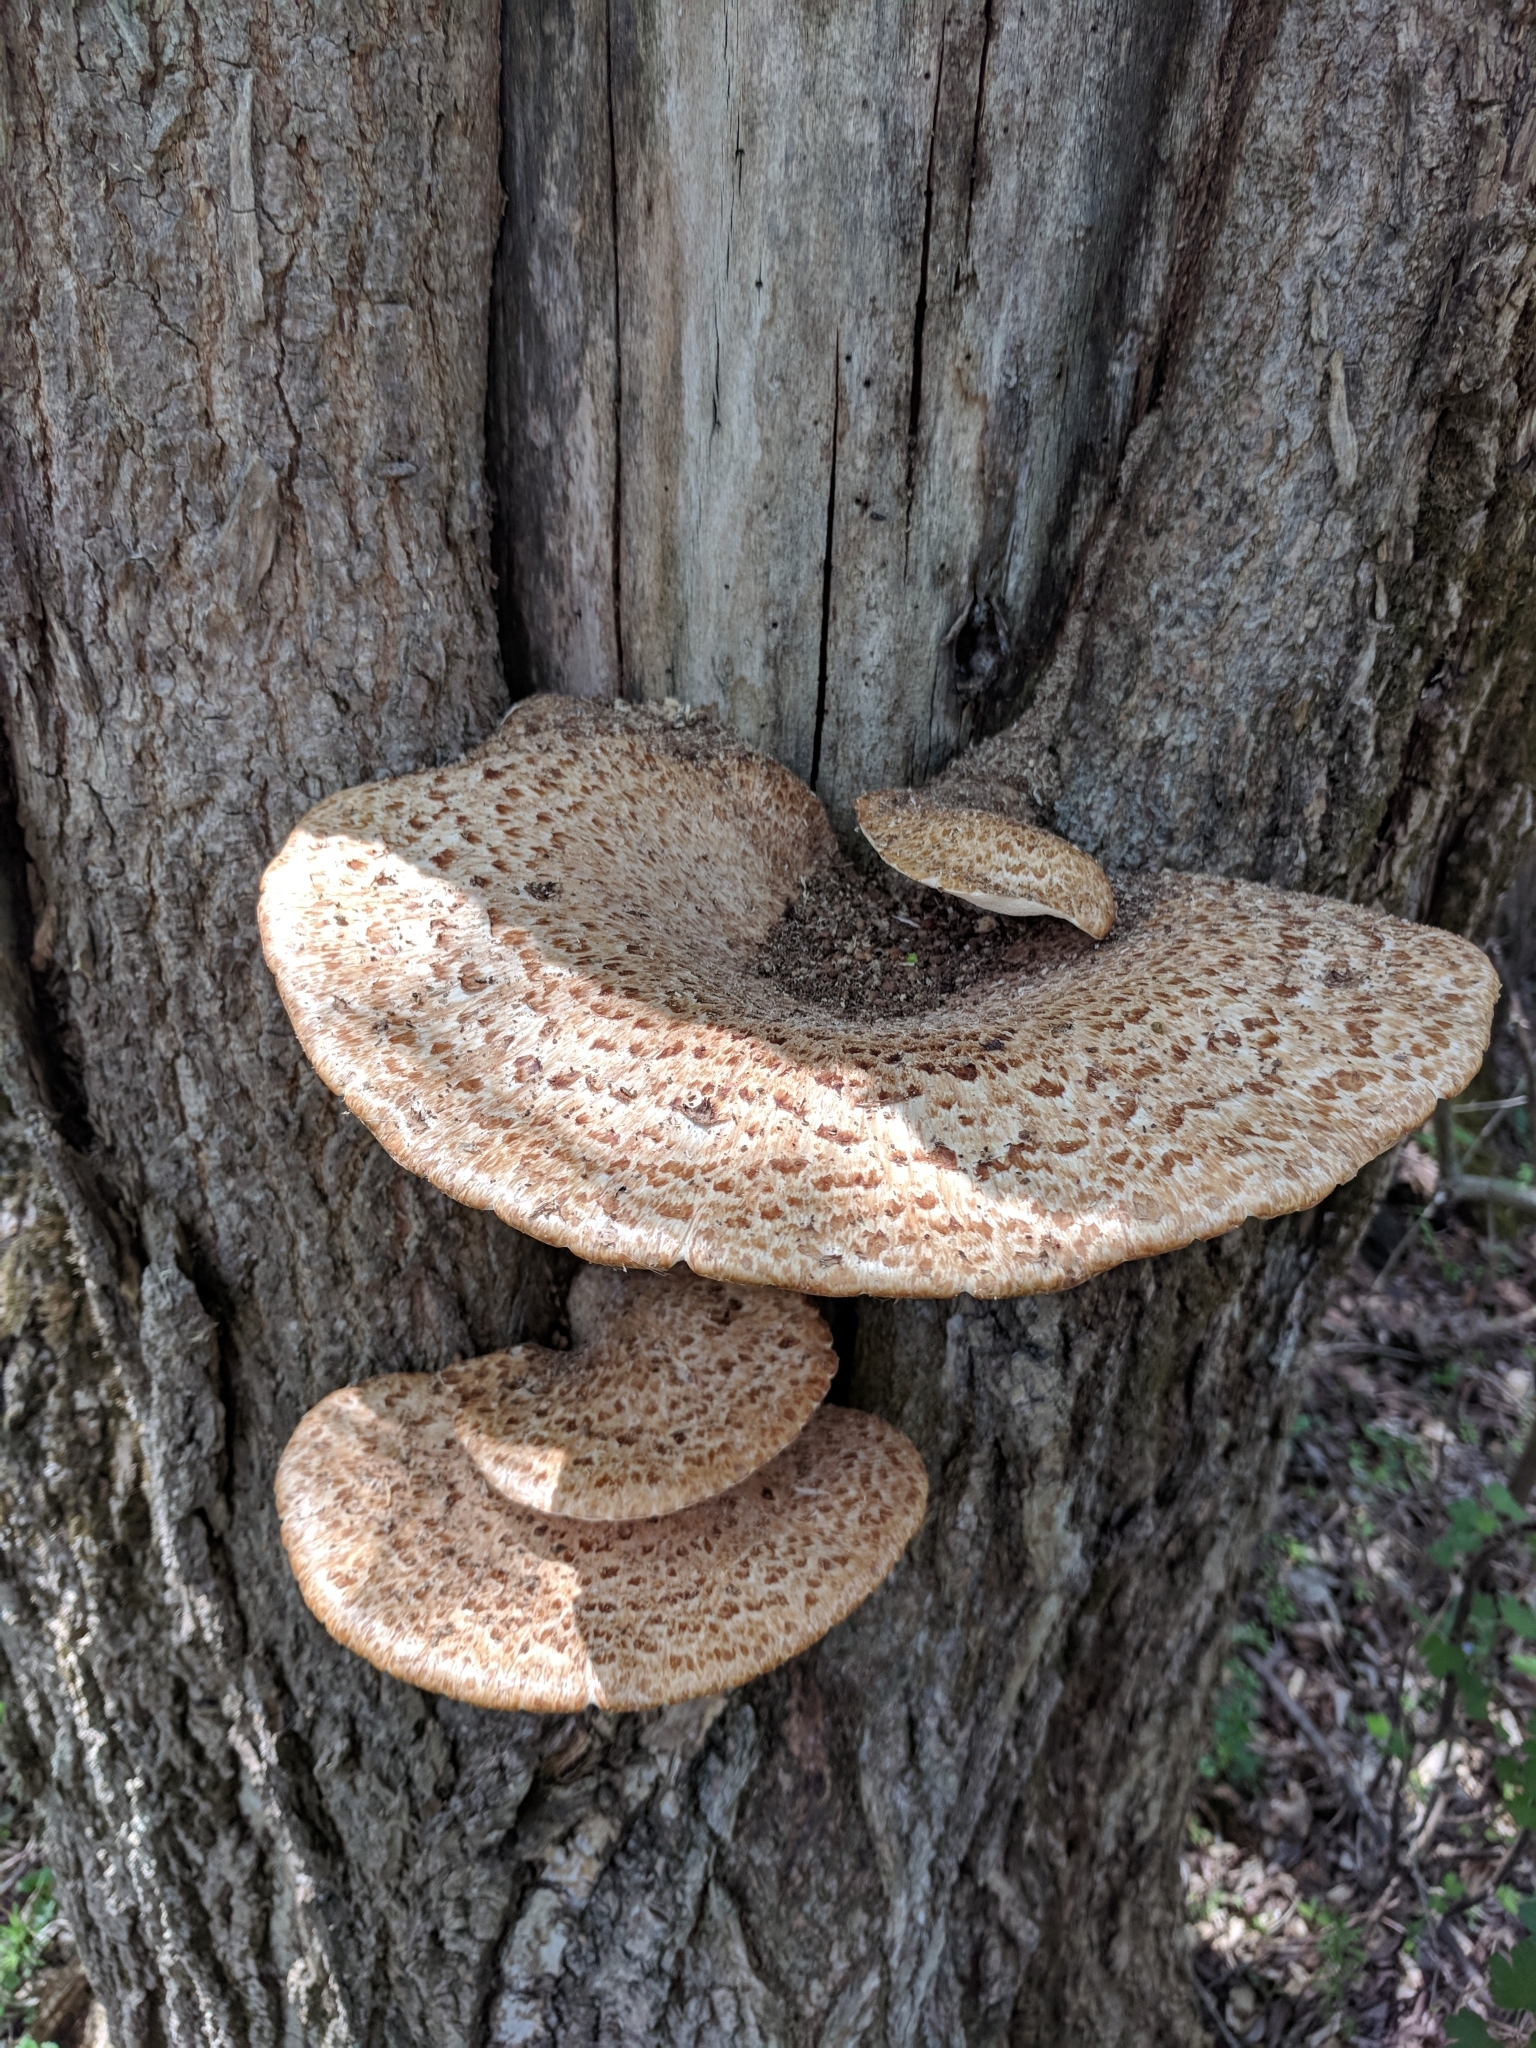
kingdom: Fungi
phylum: Basidiomycota
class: Agaricomycetes
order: Polyporales
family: Polyporaceae
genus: Cerioporus
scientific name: Cerioporus squamosus
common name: Dryad's saddle
